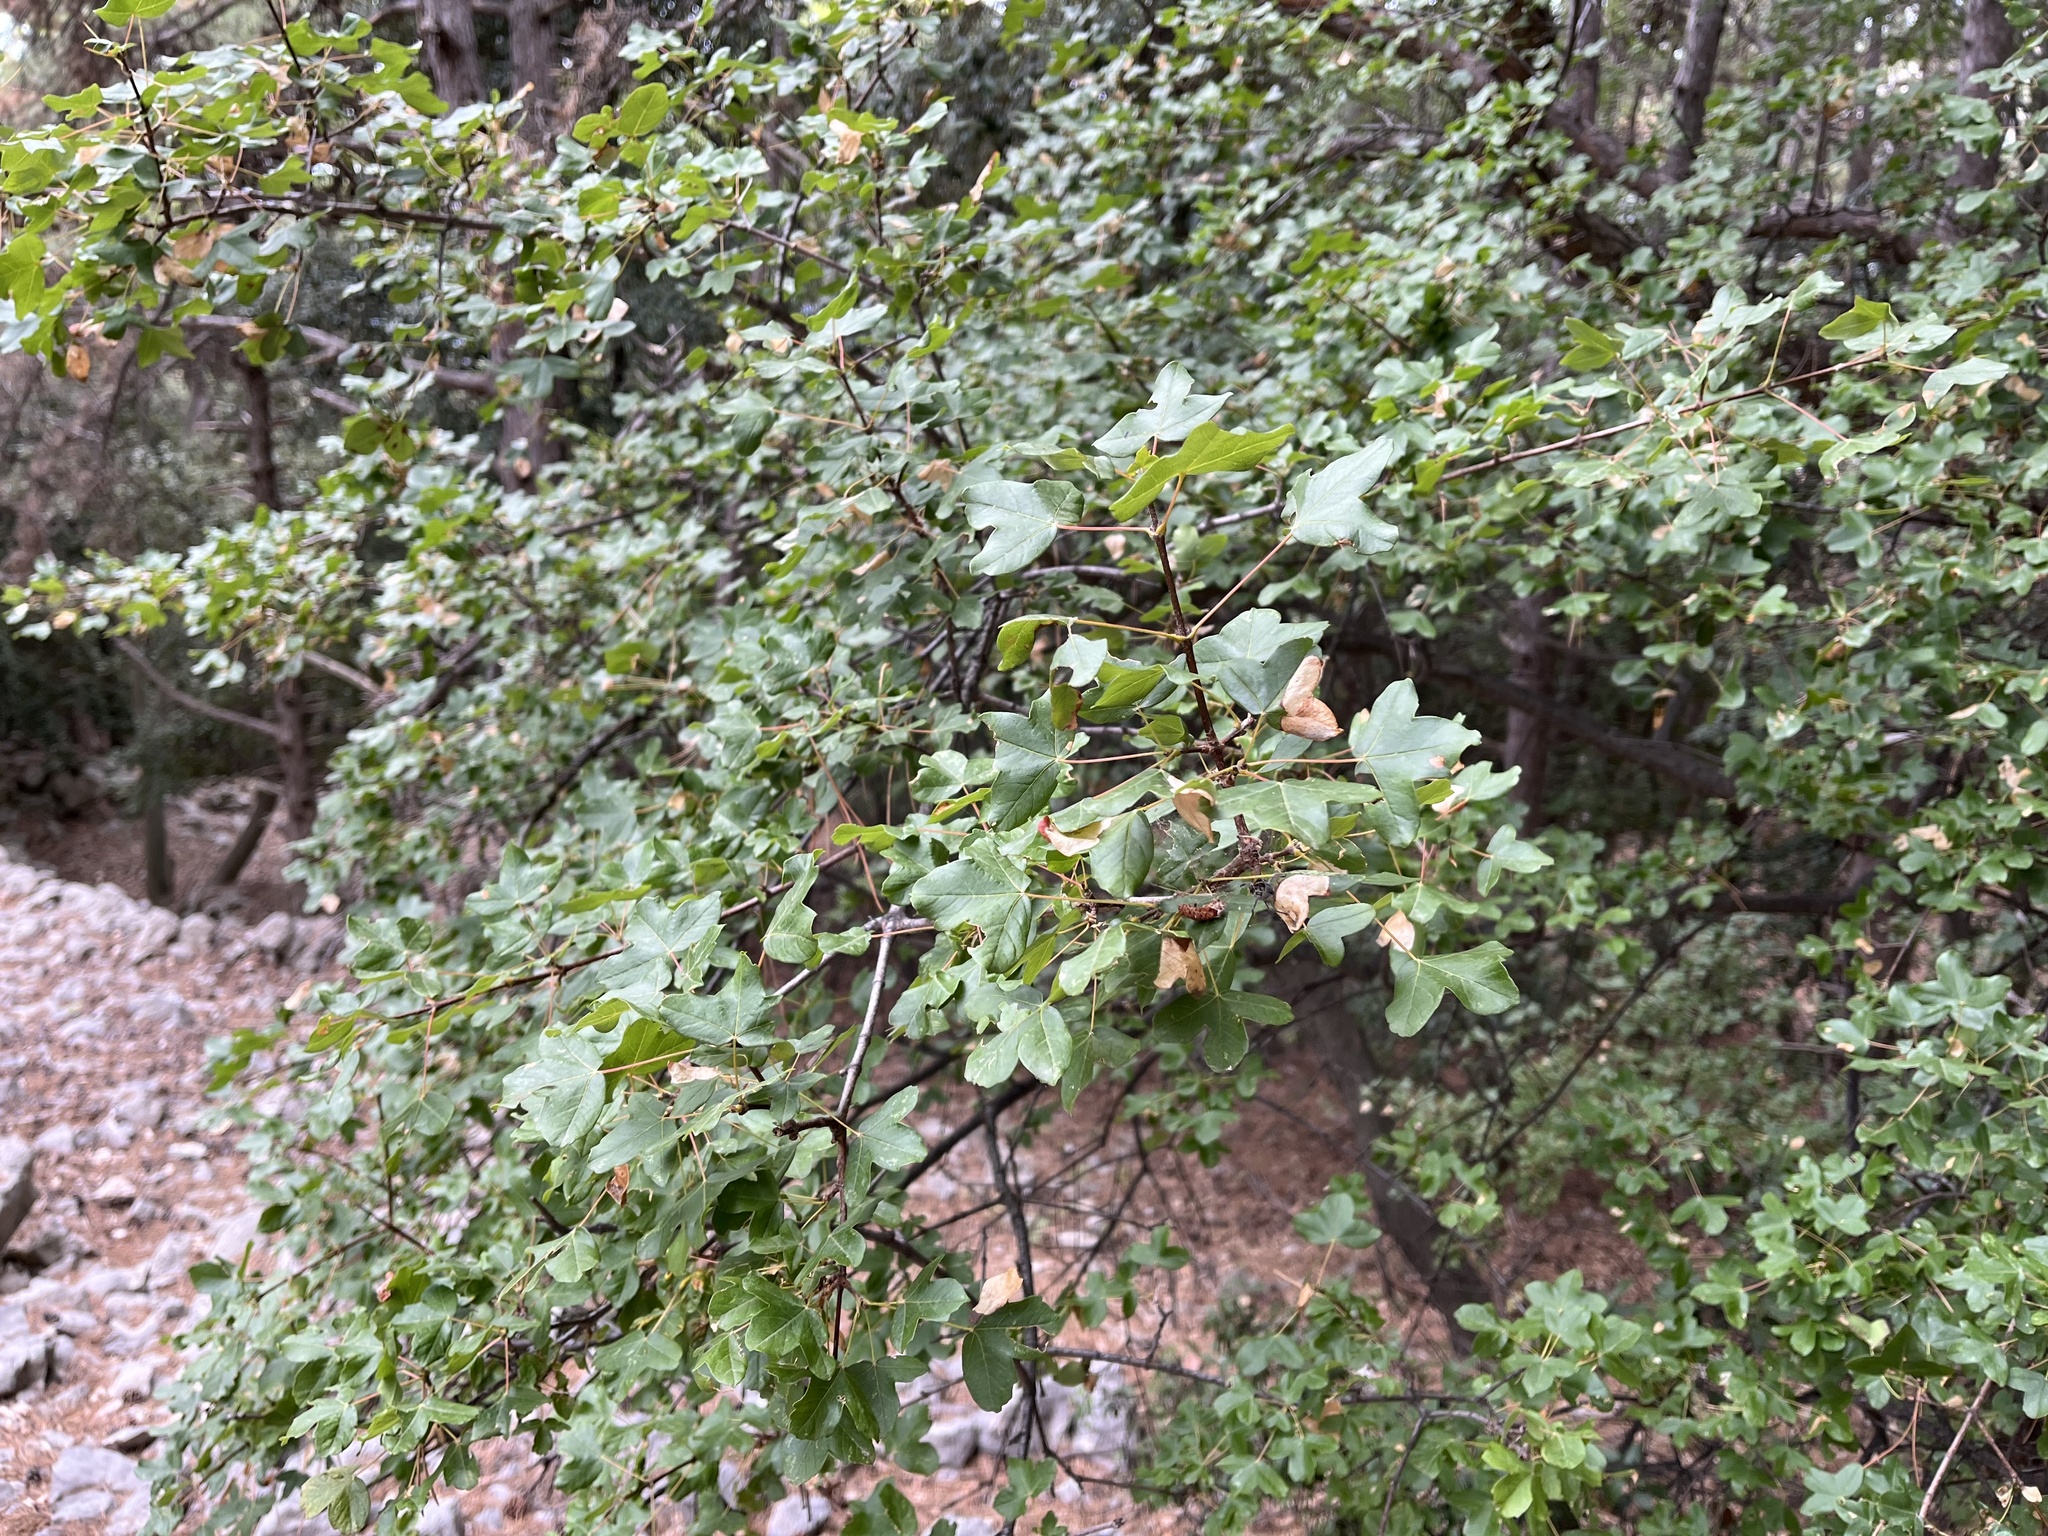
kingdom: Plantae
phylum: Tracheophyta
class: Magnoliopsida
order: Sapindales
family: Sapindaceae
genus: Acer
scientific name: Acer monspessulanum
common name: Montpellier maple
